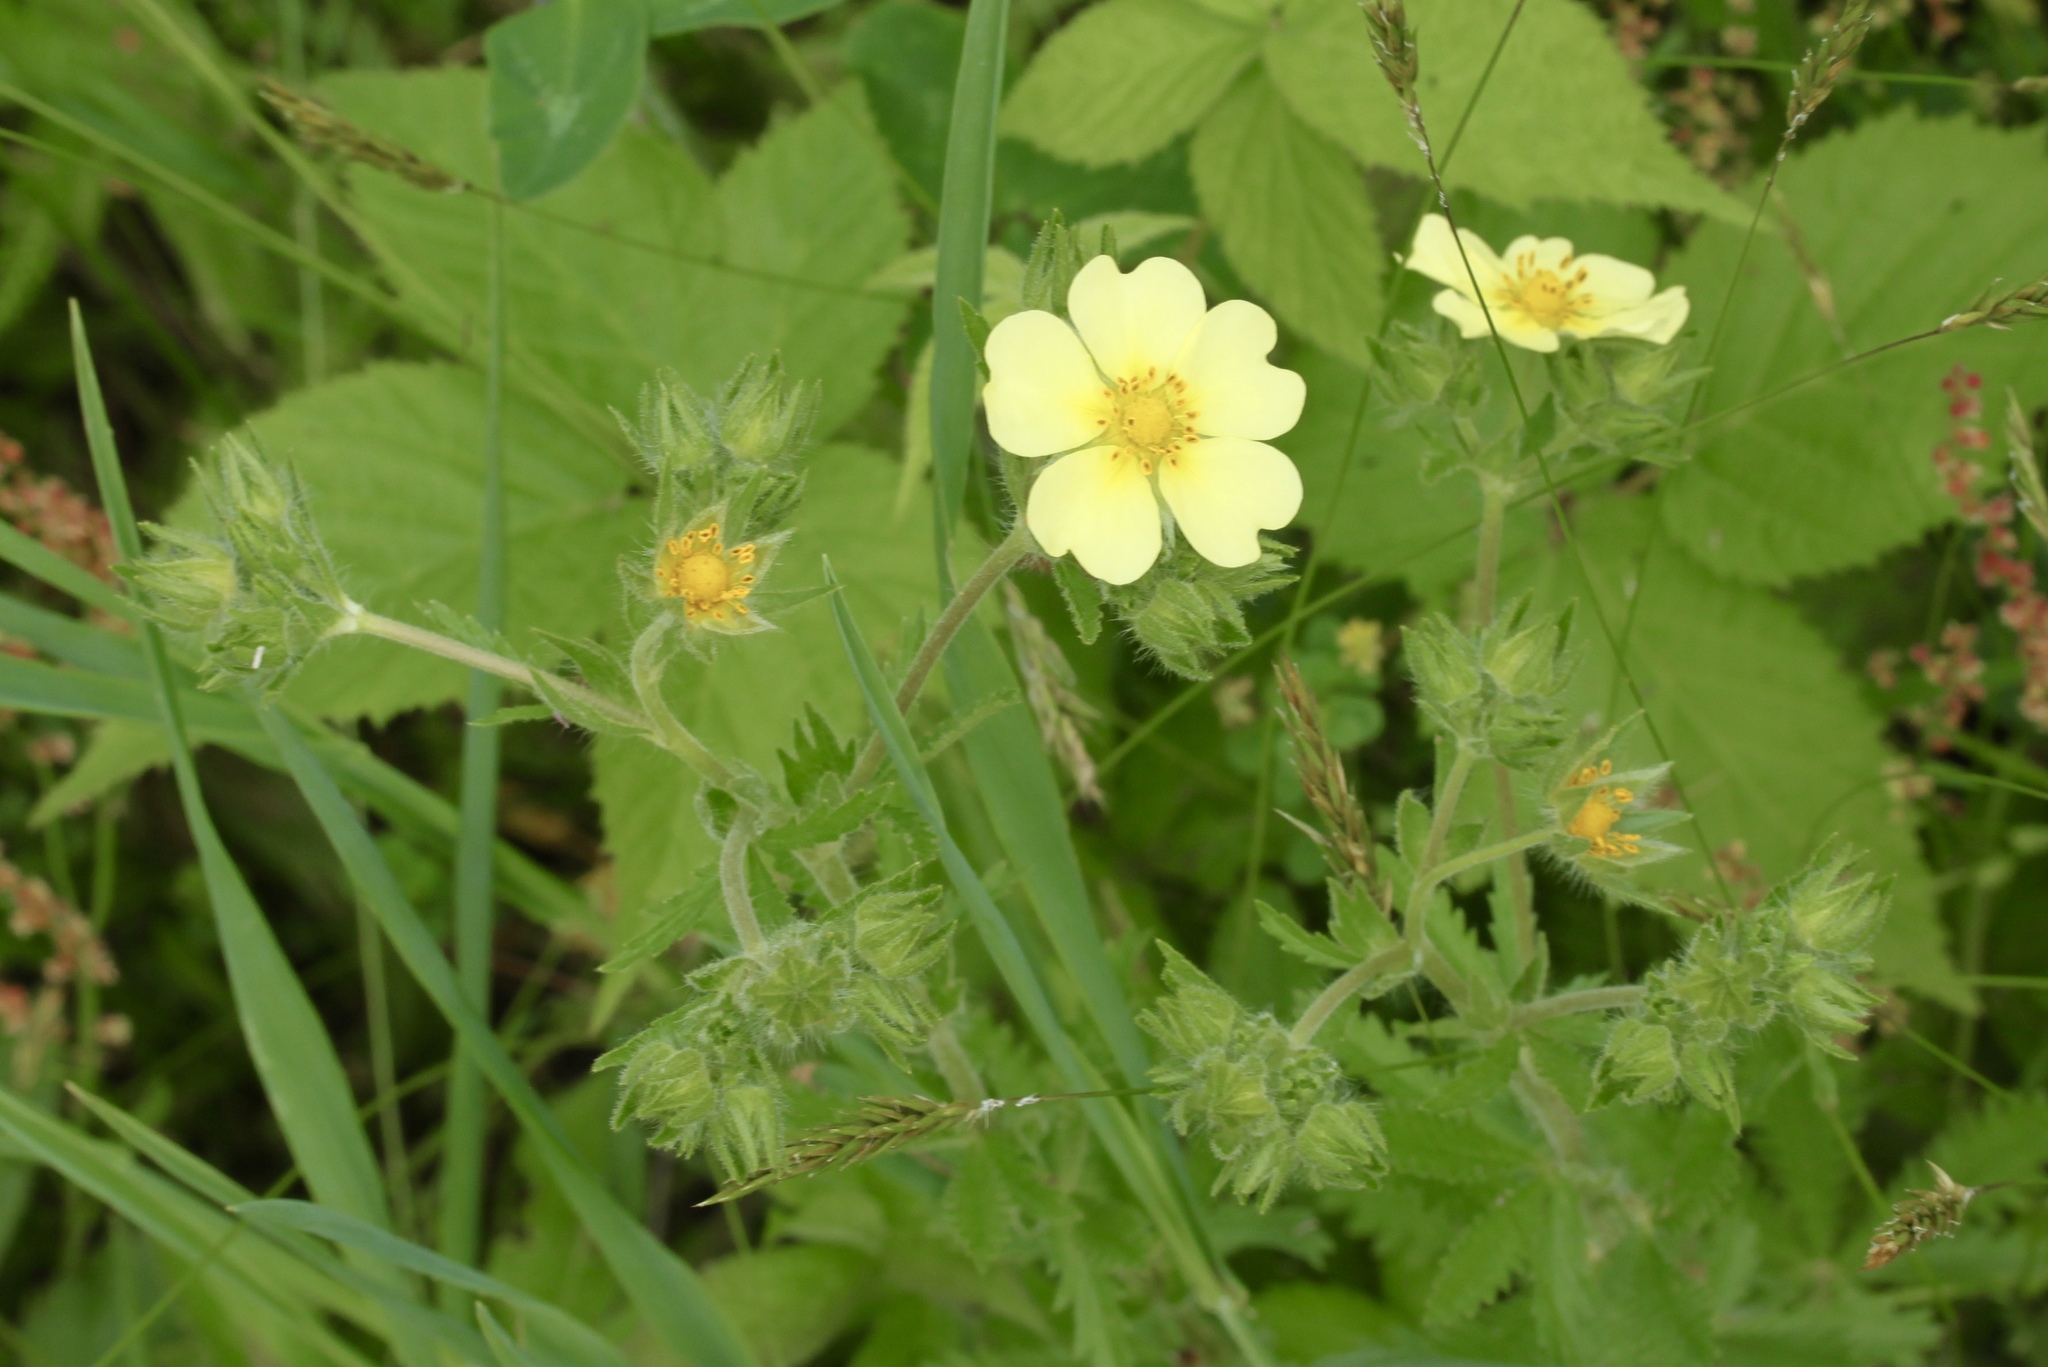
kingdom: Plantae
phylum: Tracheophyta
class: Magnoliopsida
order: Rosales
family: Rosaceae
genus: Potentilla
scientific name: Potentilla recta
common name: Sulphur cinquefoil
